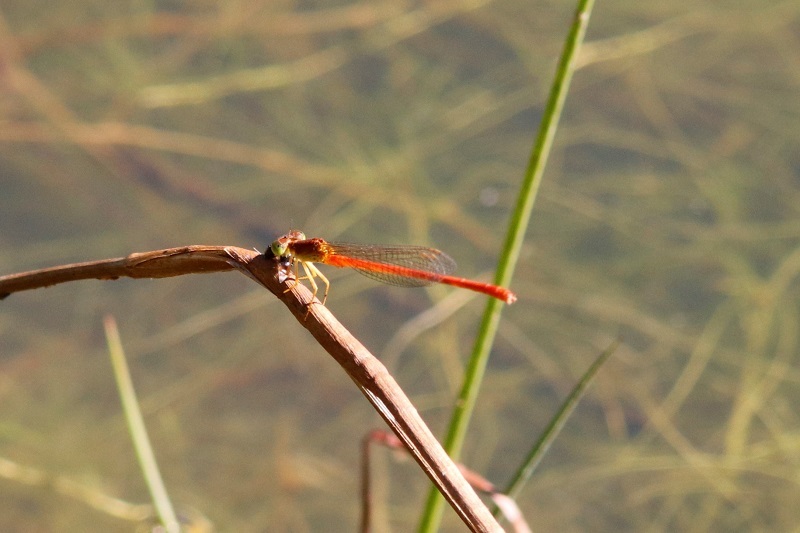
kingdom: Animalia
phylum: Arthropoda
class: Insecta
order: Odonata
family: Coenagrionidae
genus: Ceriagrion
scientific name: Ceriagrion glabrum
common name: Common pond damsel
